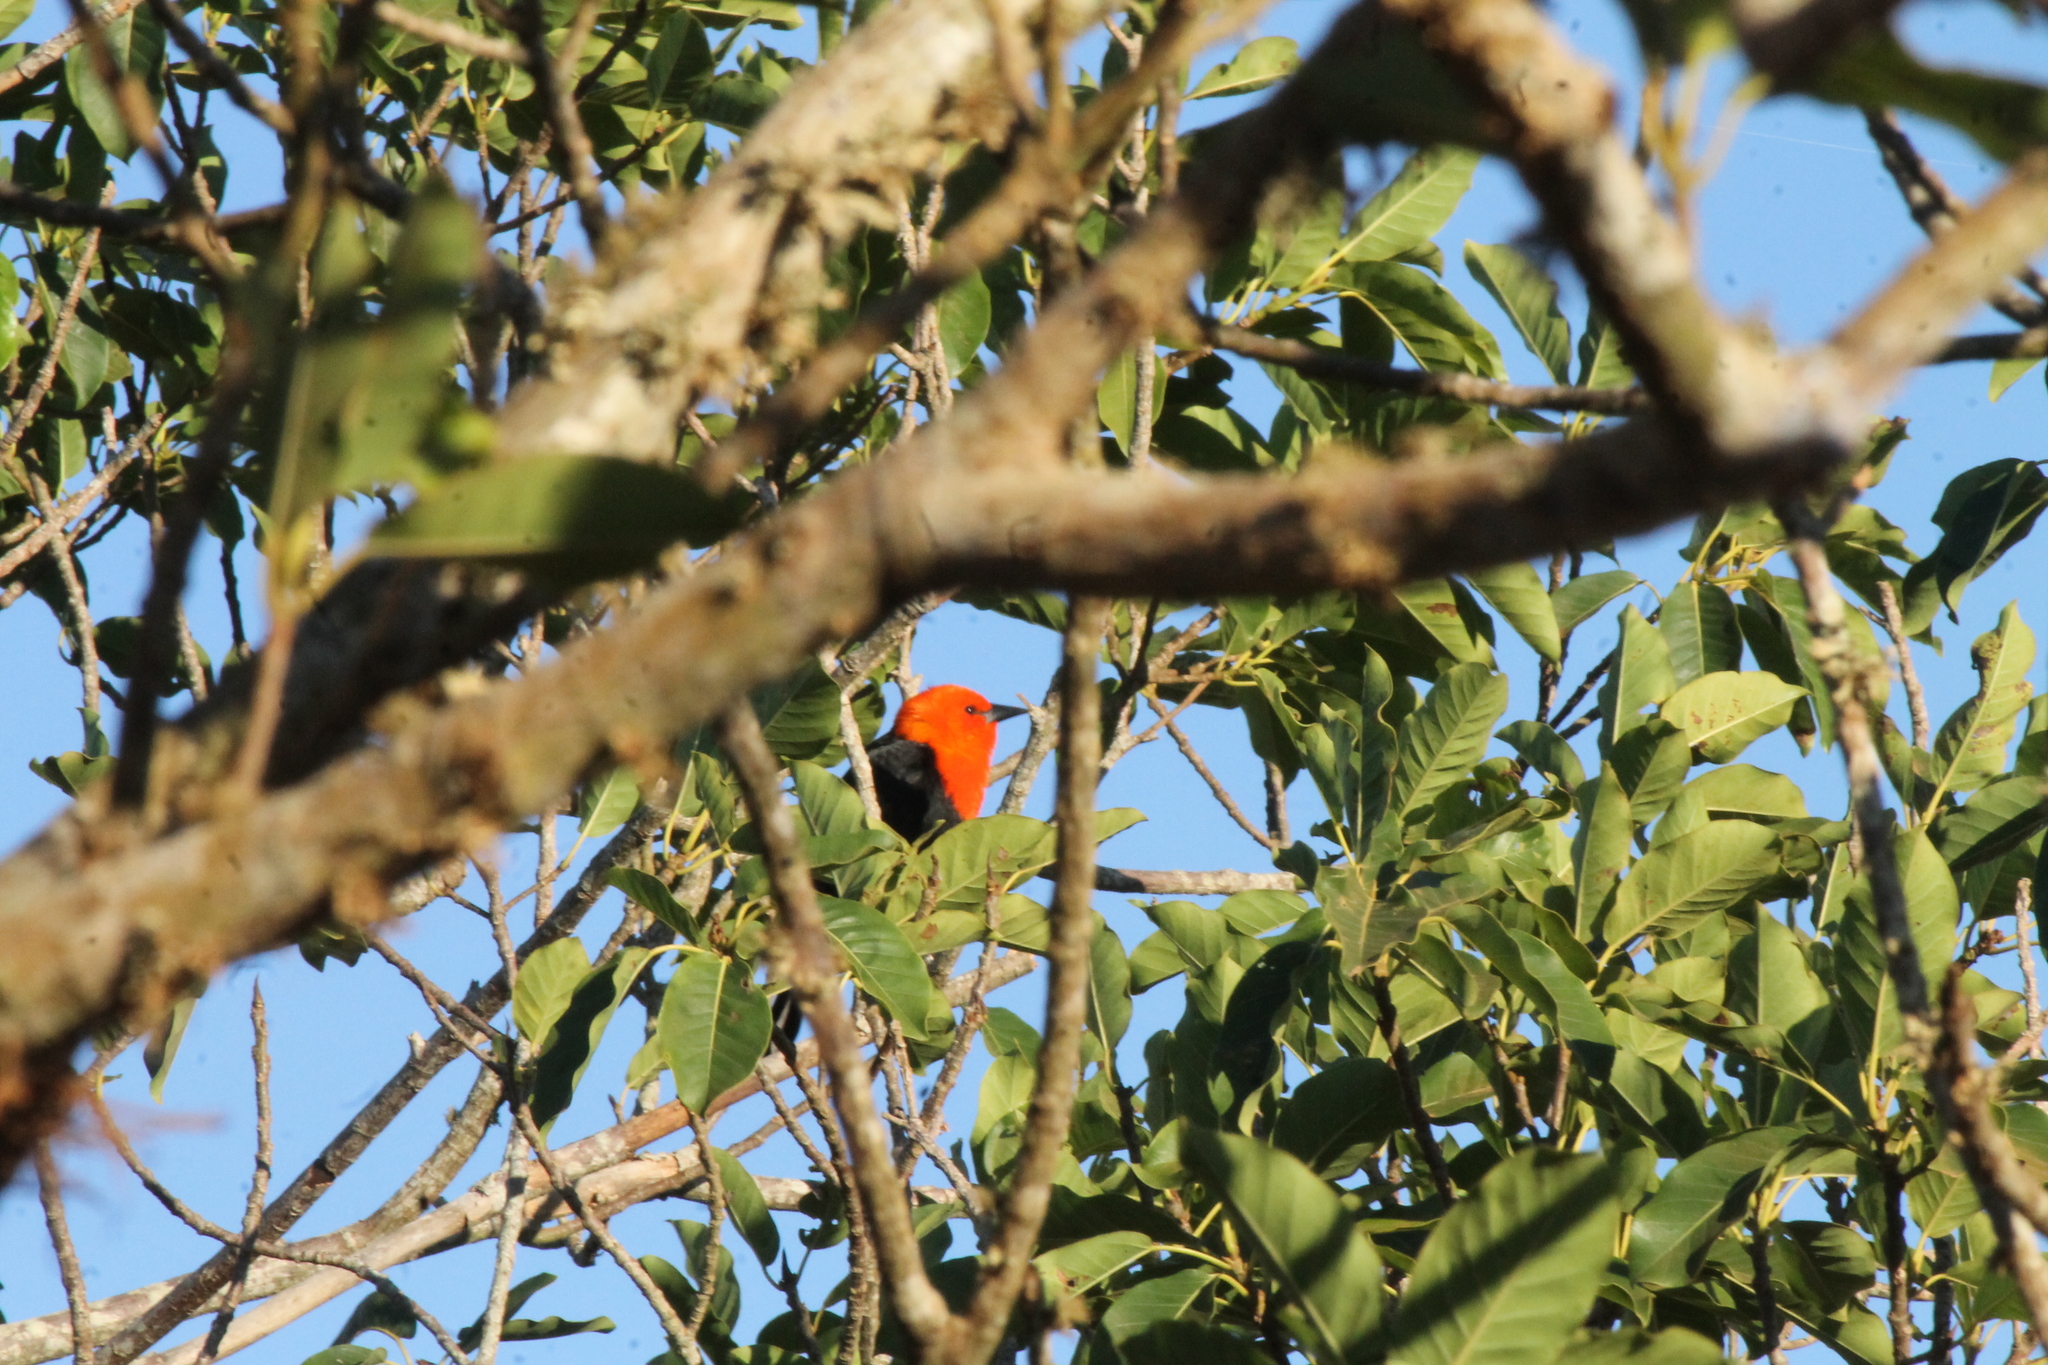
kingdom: Animalia
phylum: Chordata
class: Aves
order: Passeriformes
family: Icteridae
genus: Amblyramphus
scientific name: Amblyramphus holosericeus
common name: Scarlet-headed blackbird
